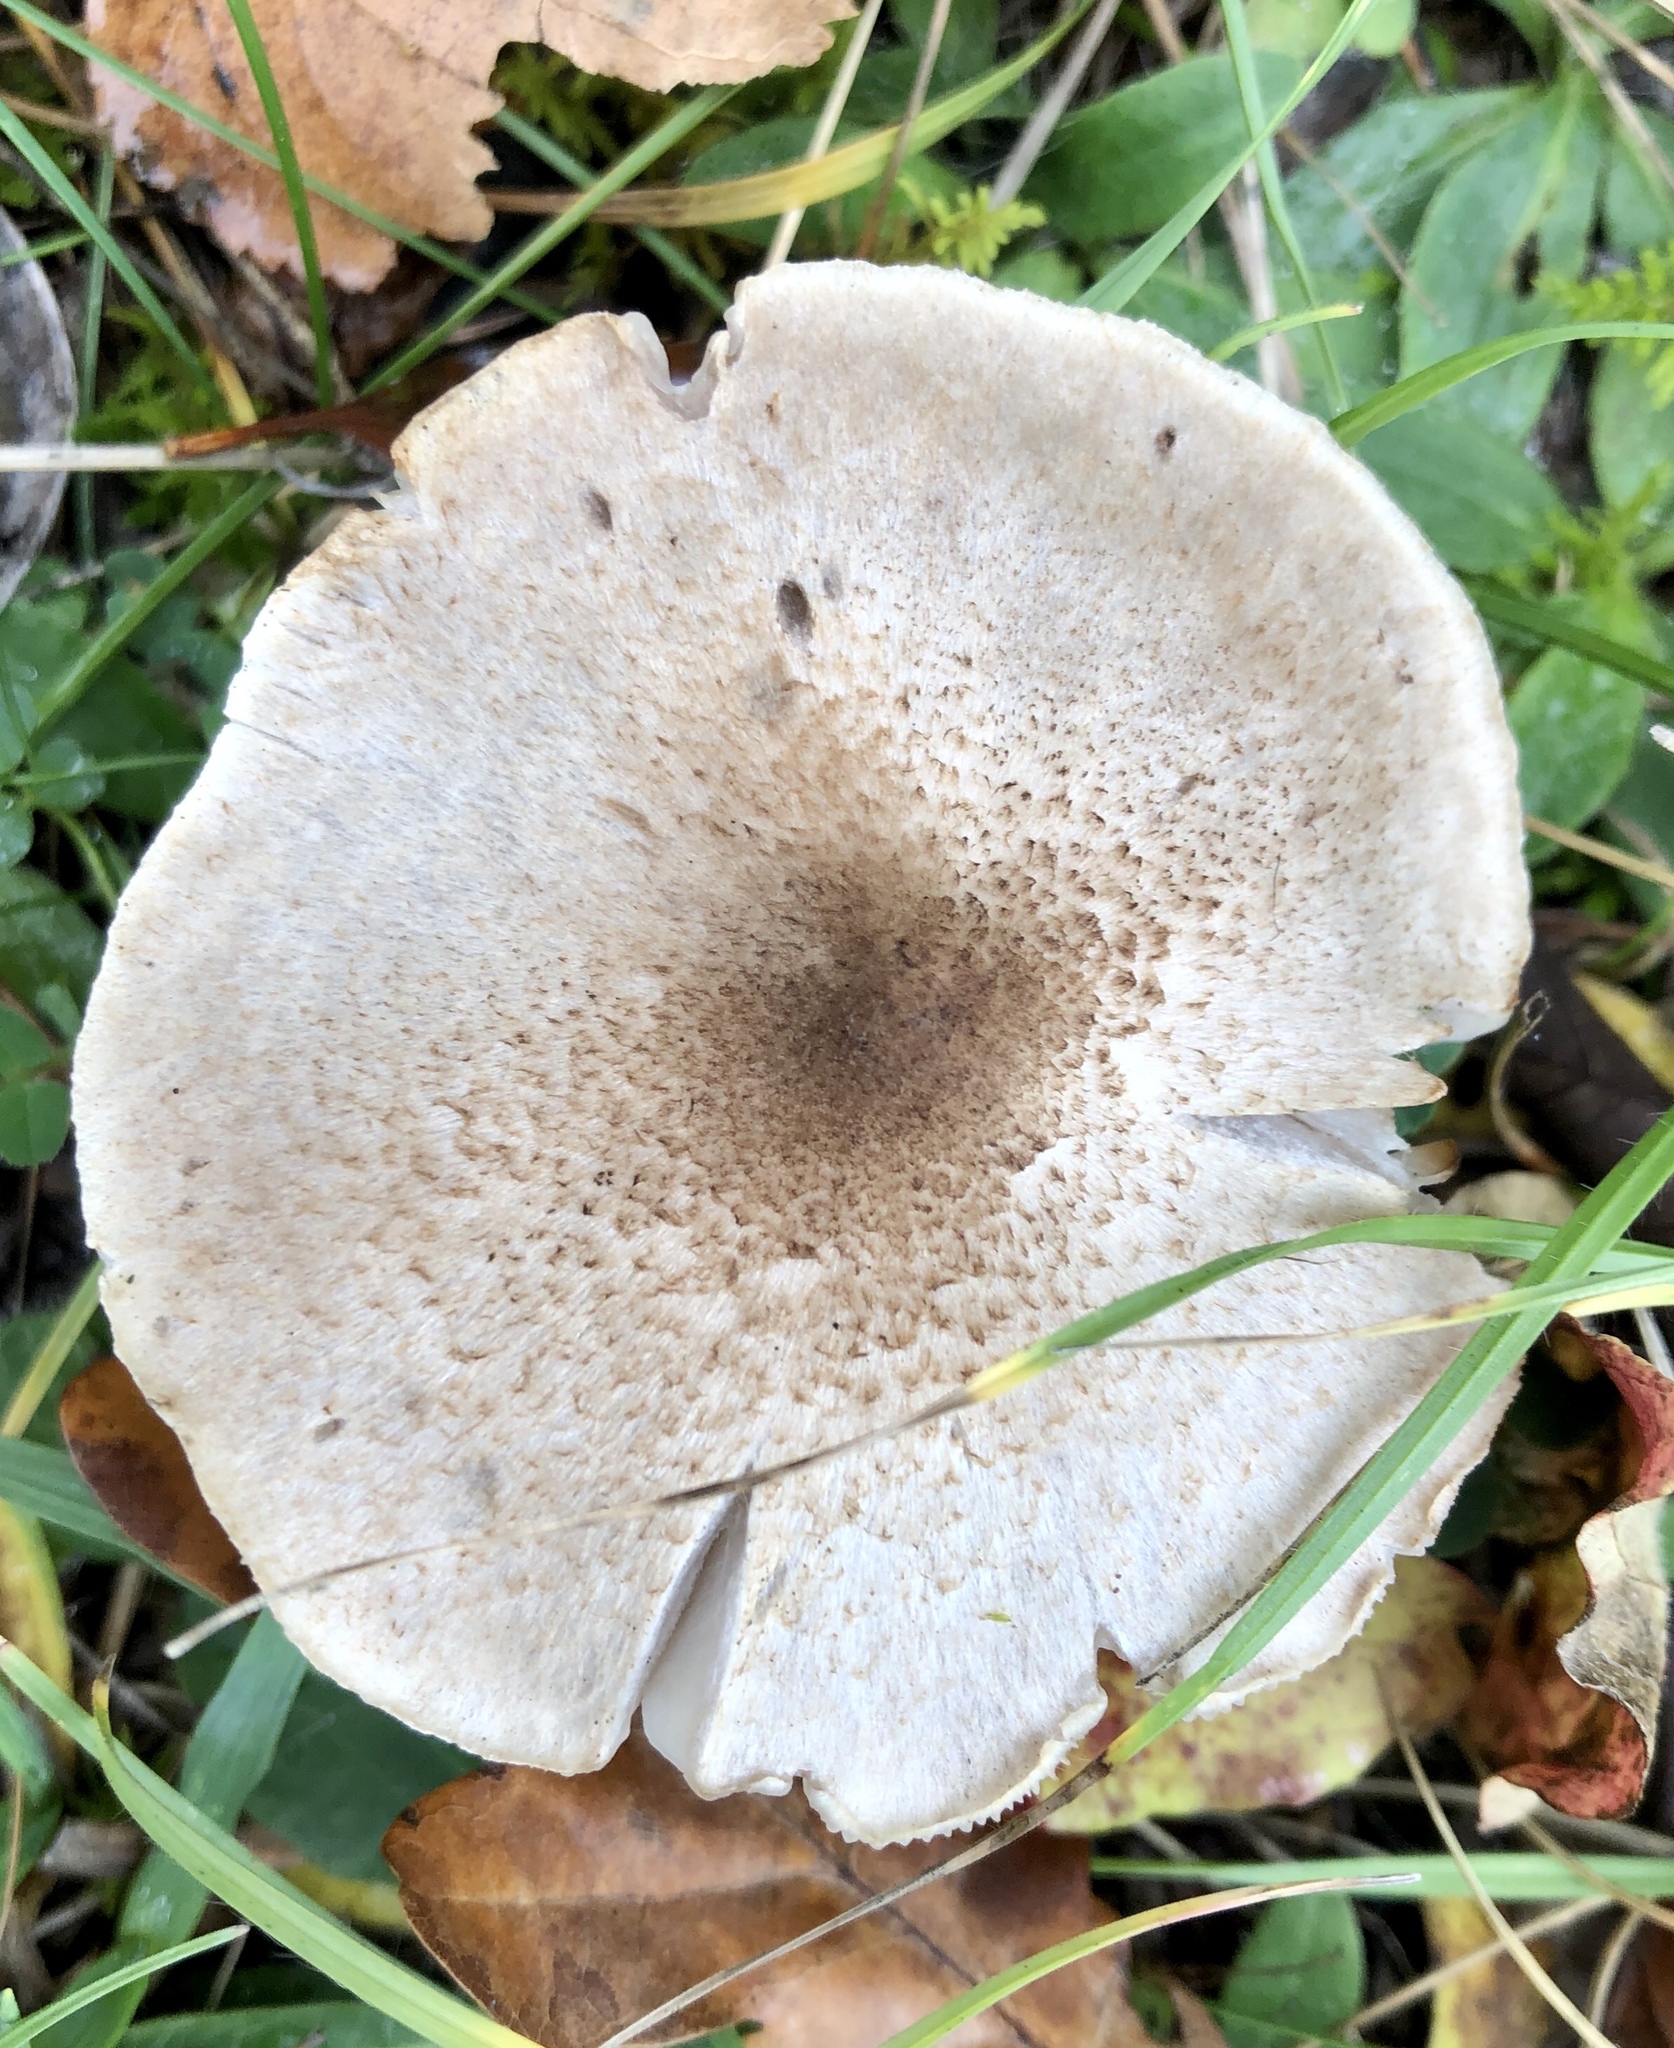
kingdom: Fungi
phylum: Basidiomycota
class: Agaricomycetes
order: Agaricales
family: Tricholomataceae
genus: Tricholoma
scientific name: Tricholoma scalpturatum
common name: Yellowing knight
